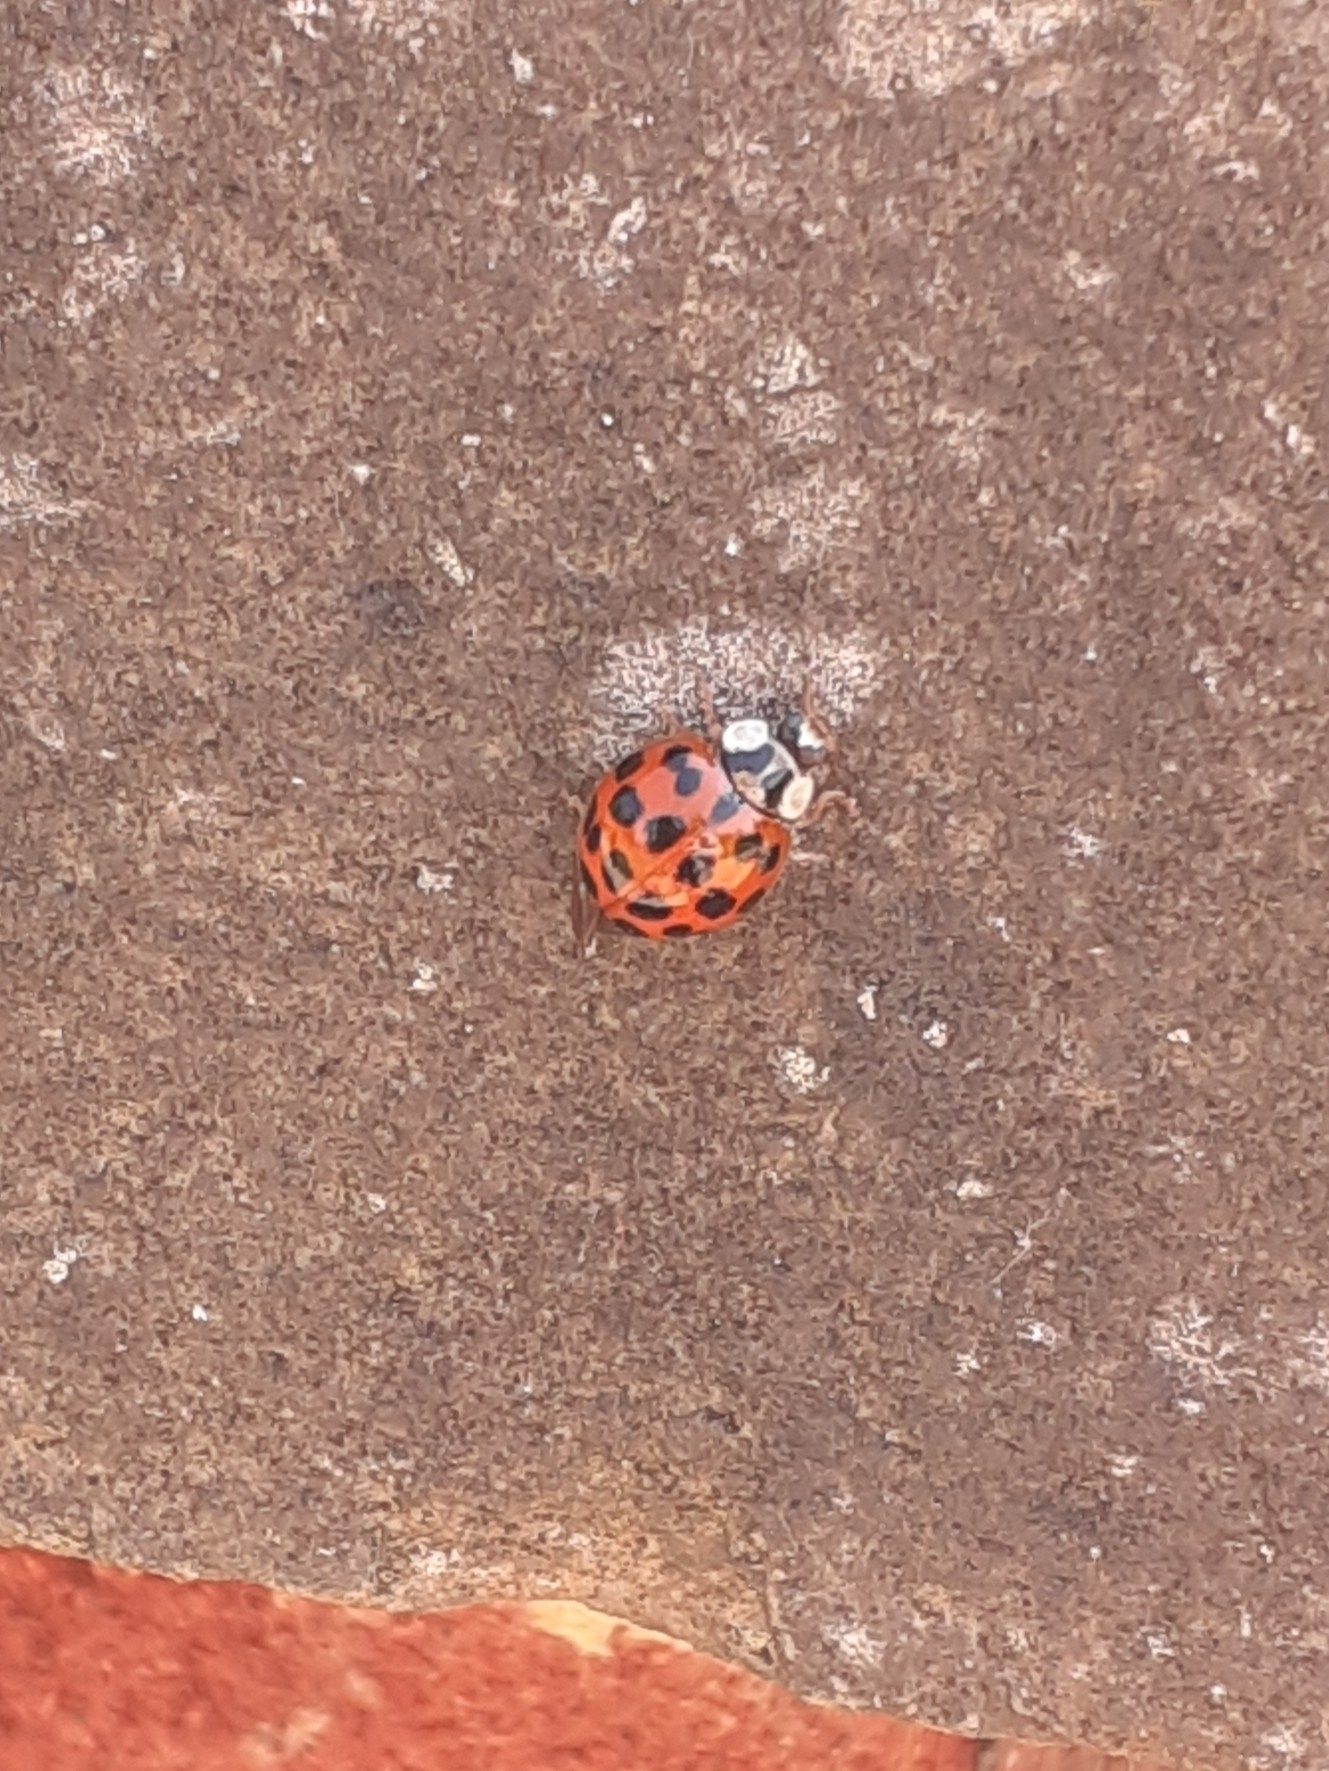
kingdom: Animalia
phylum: Arthropoda
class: Insecta
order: Coleoptera
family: Coccinellidae
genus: Harmonia
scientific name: Harmonia axyridis
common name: Harlequin ladybird
